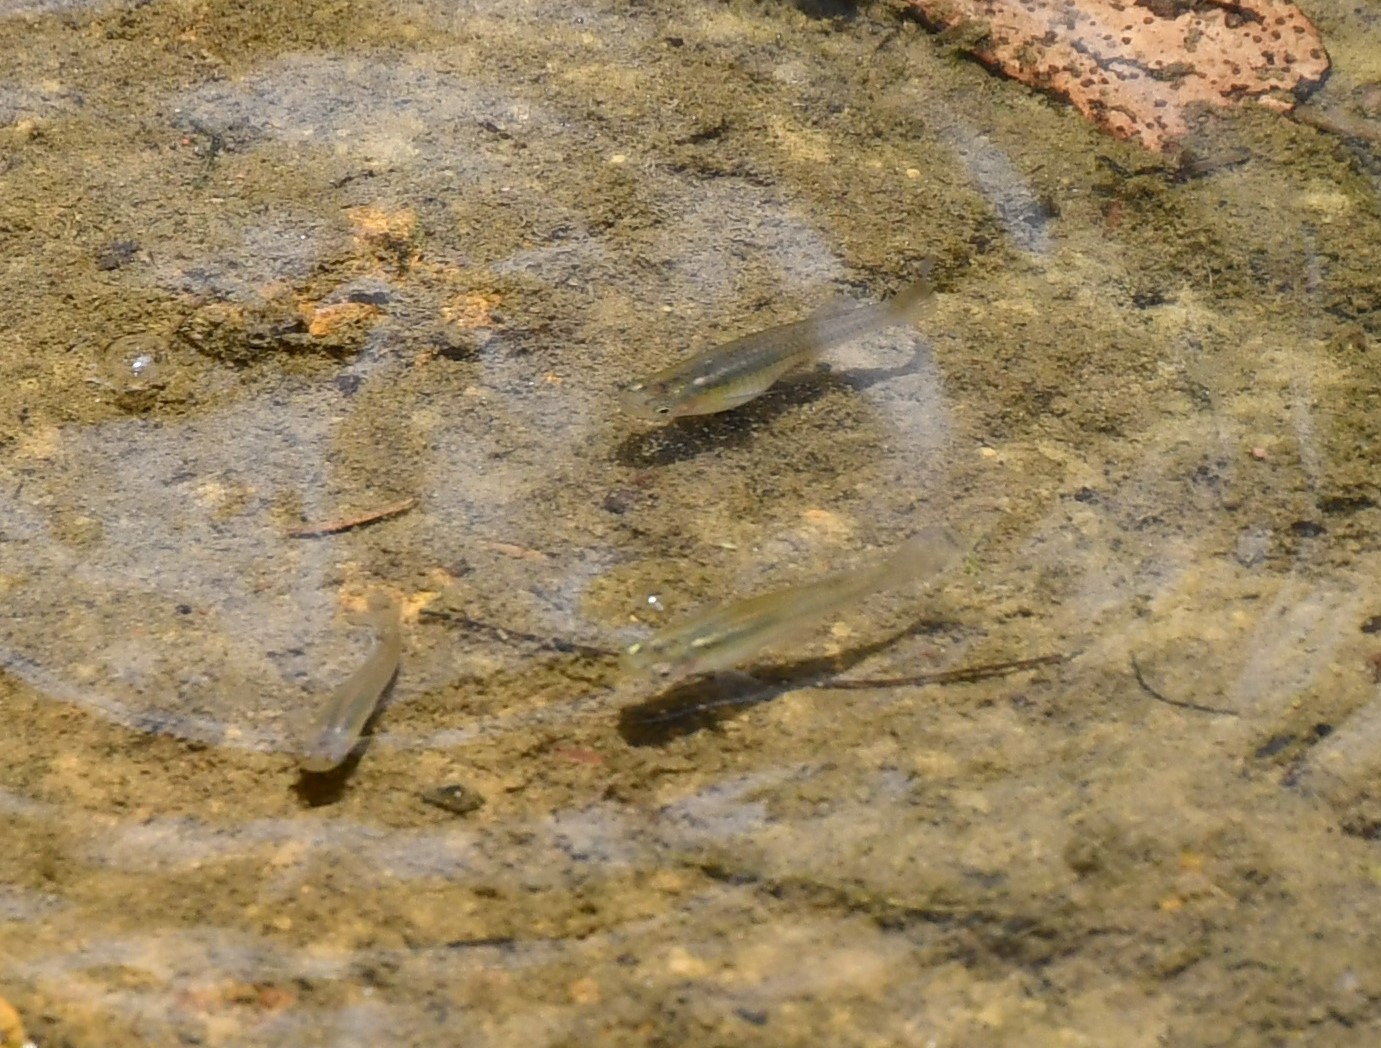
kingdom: Animalia
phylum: Chordata
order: Cyprinodontiformes
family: Poeciliidae
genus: Gambusia
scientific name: Gambusia holbrooki
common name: Eastern mosquitofish
